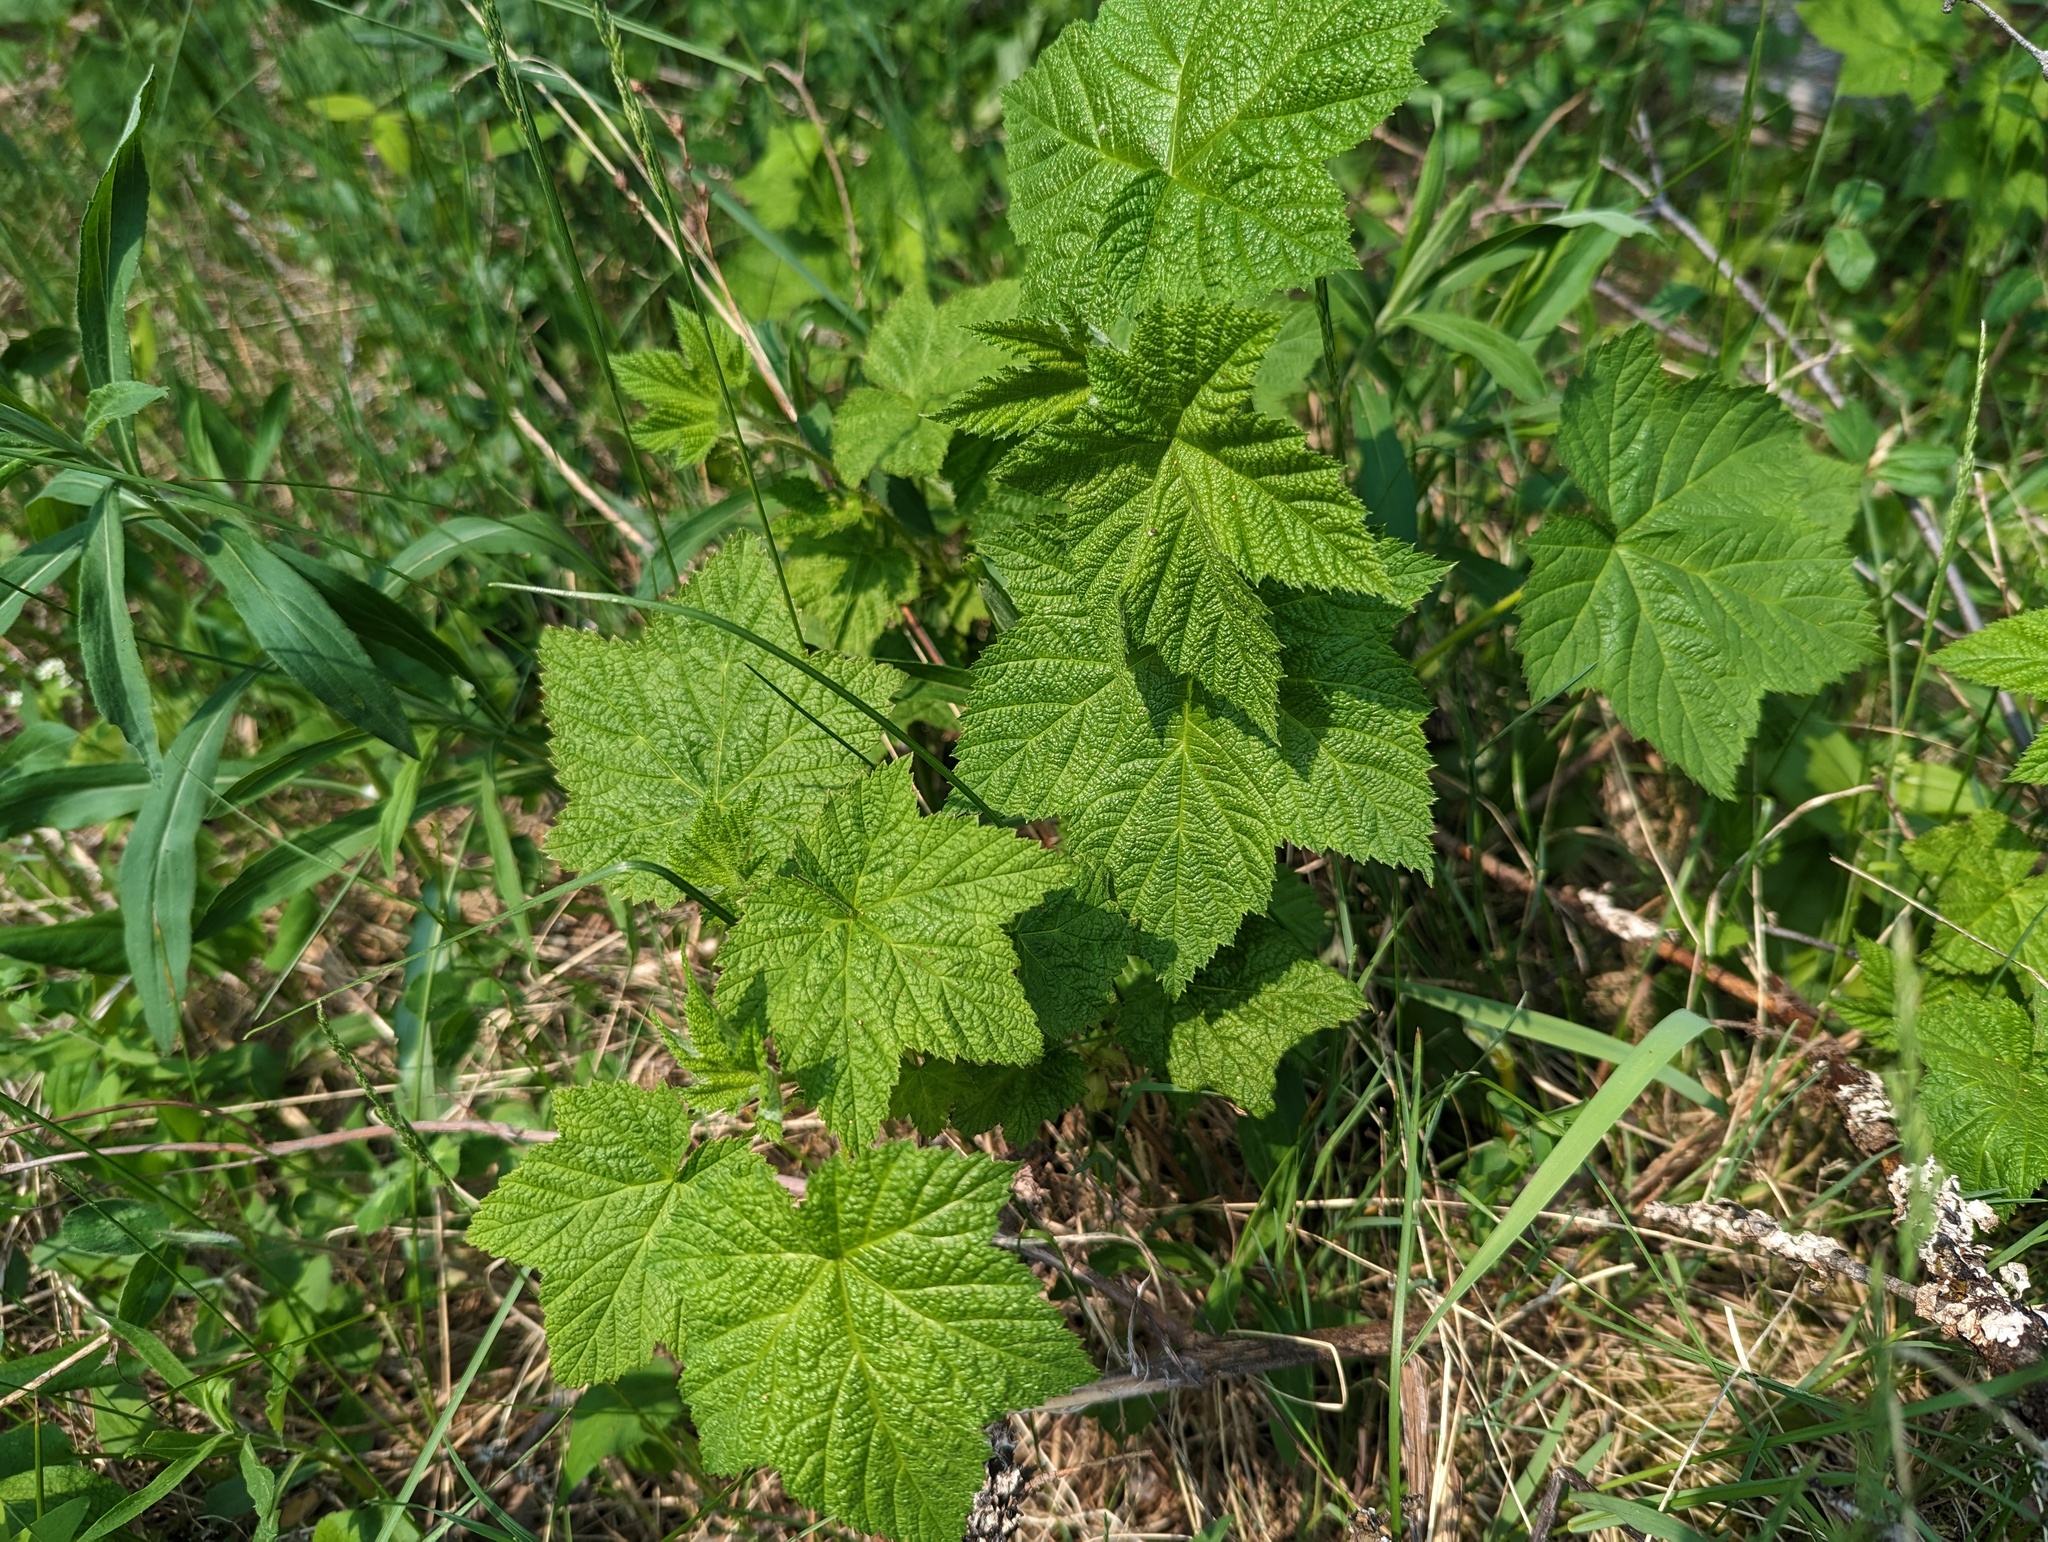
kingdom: Plantae
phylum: Tracheophyta
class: Magnoliopsida
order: Rosales
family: Rosaceae
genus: Rubus
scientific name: Rubus parviflorus
